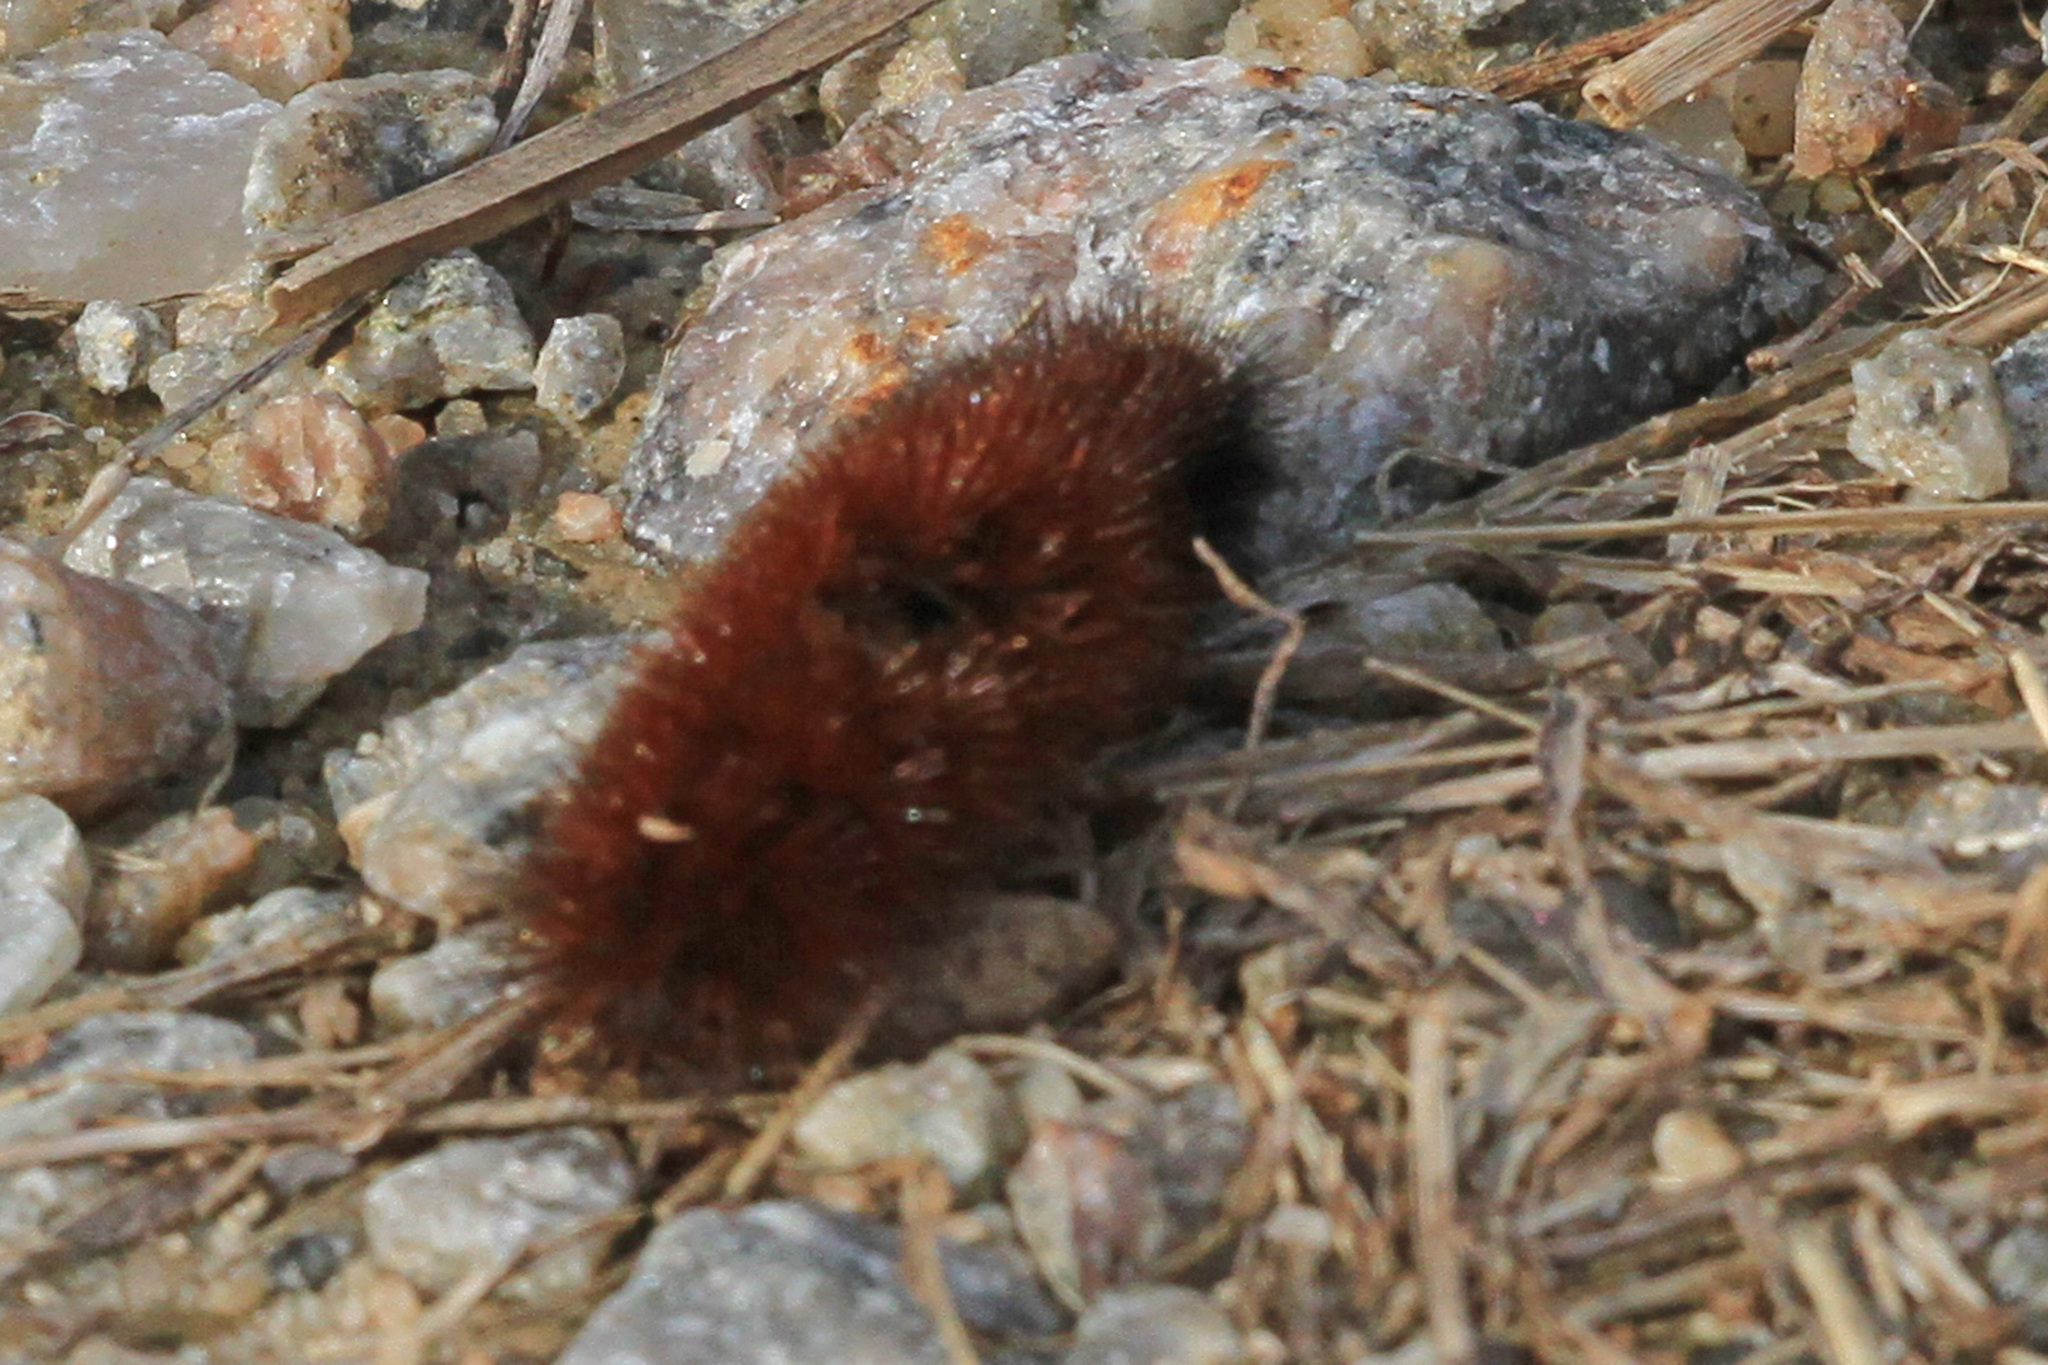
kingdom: Animalia
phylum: Arthropoda
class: Insecta
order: Lepidoptera
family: Erebidae
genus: Pyrrharctia
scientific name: Pyrrharctia isabella
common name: Isabella tiger moth
